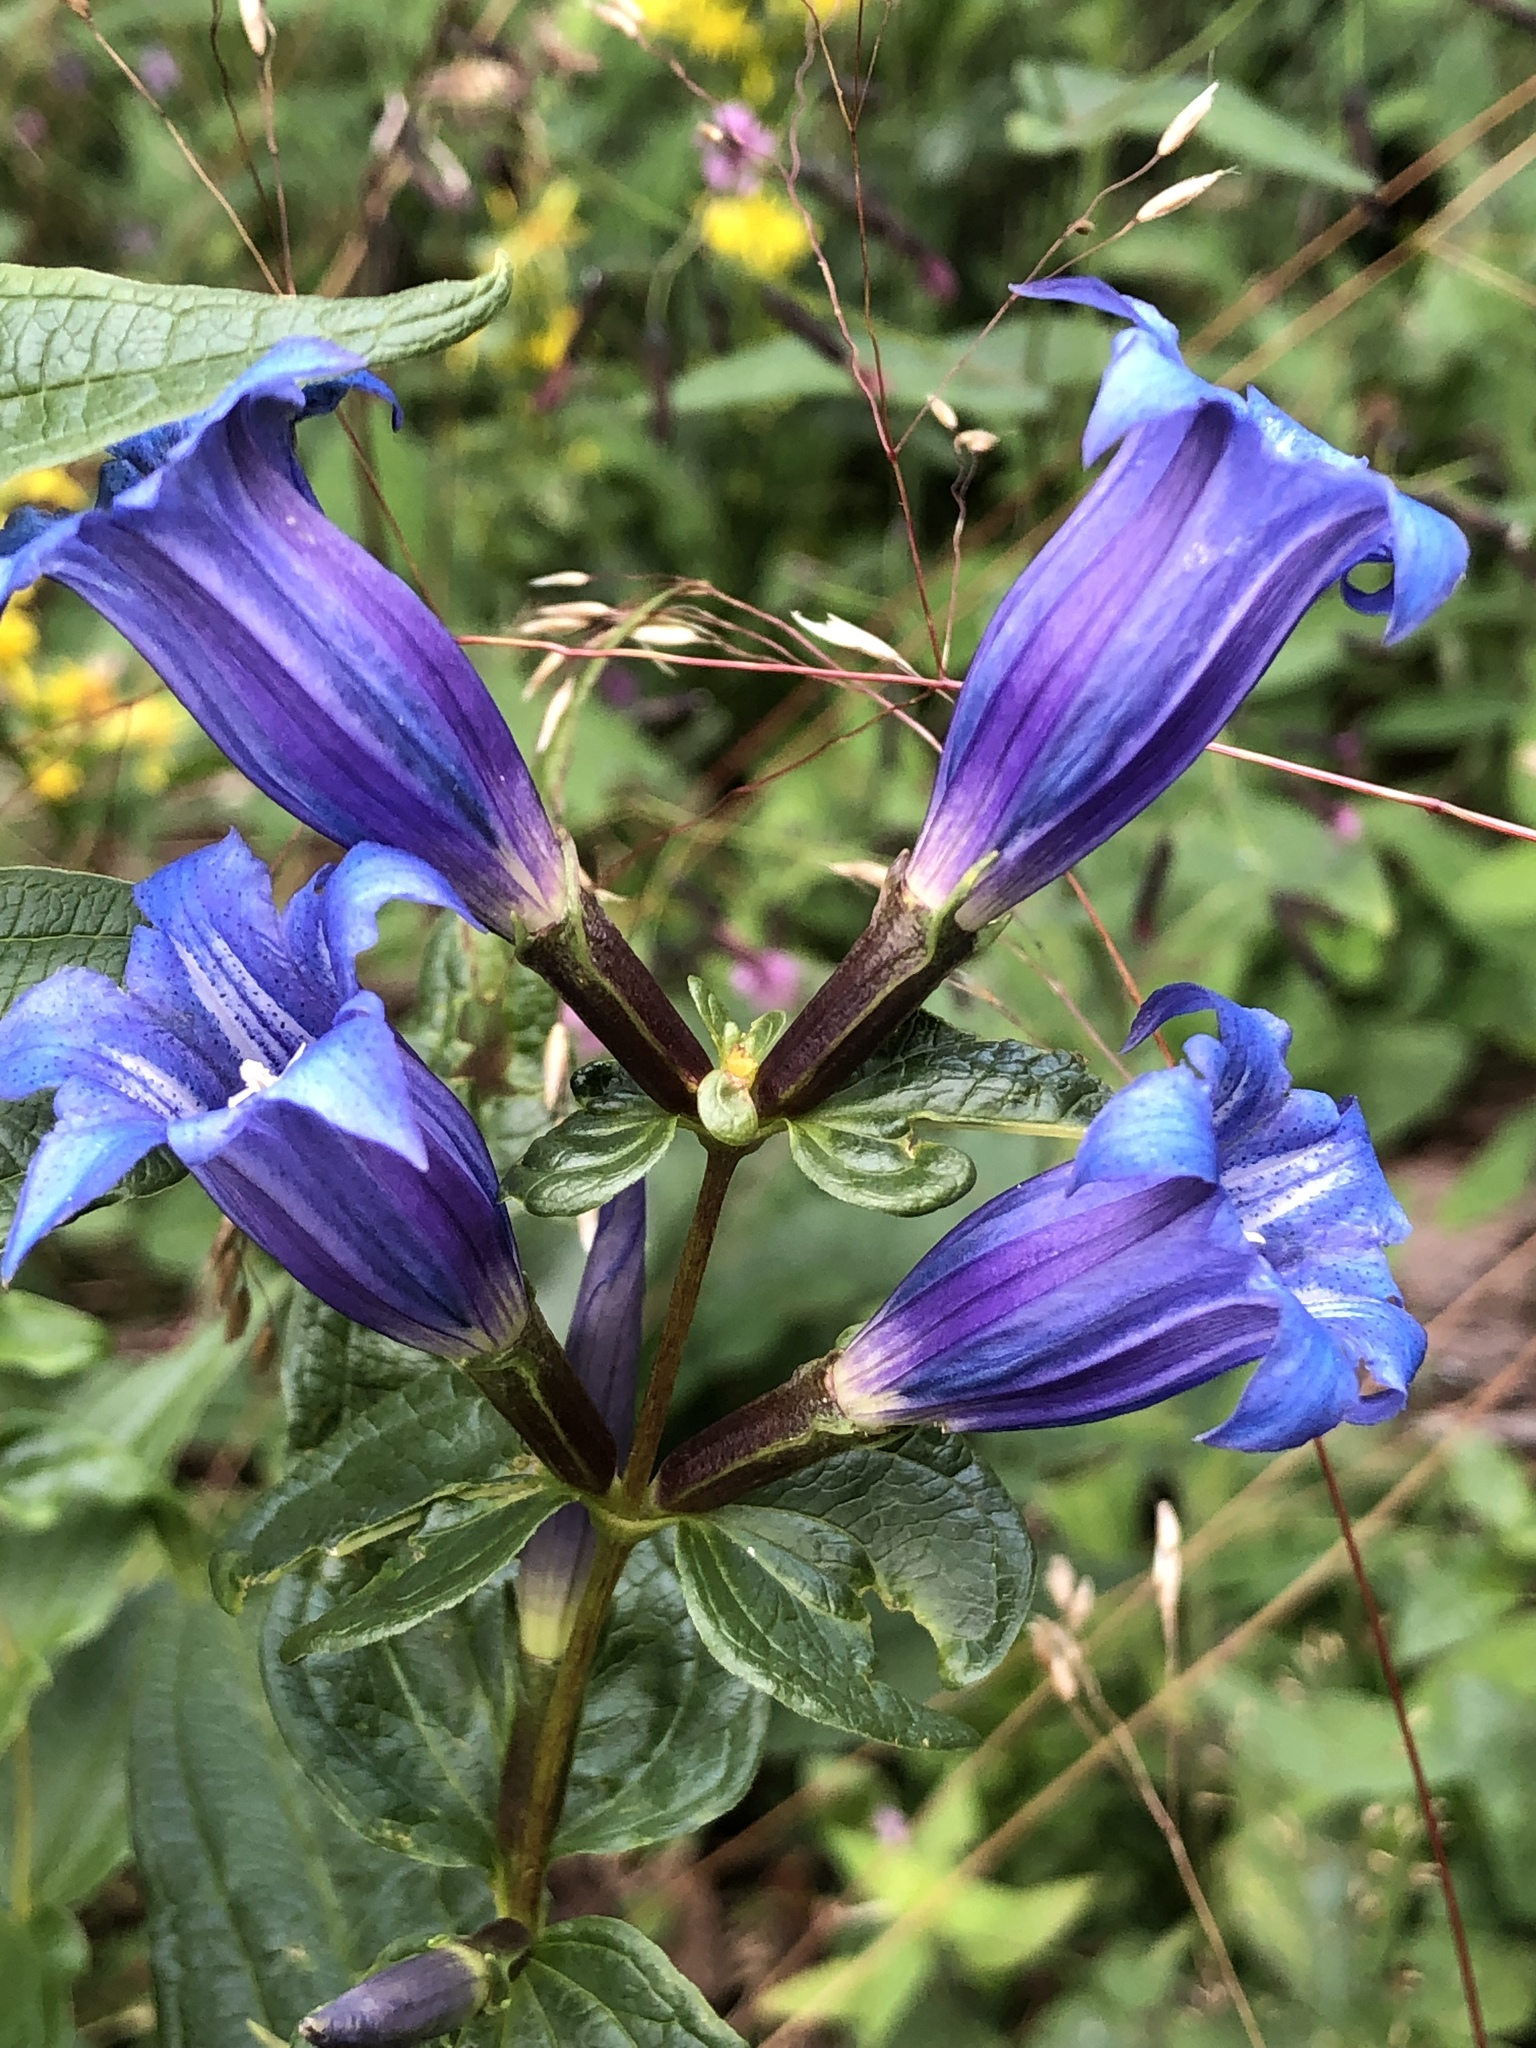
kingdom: Plantae
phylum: Tracheophyta
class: Magnoliopsida
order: Gentianales
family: Gentianaceae
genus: Gentiana
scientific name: Gentiana asclepiadea
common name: Willow gentian
